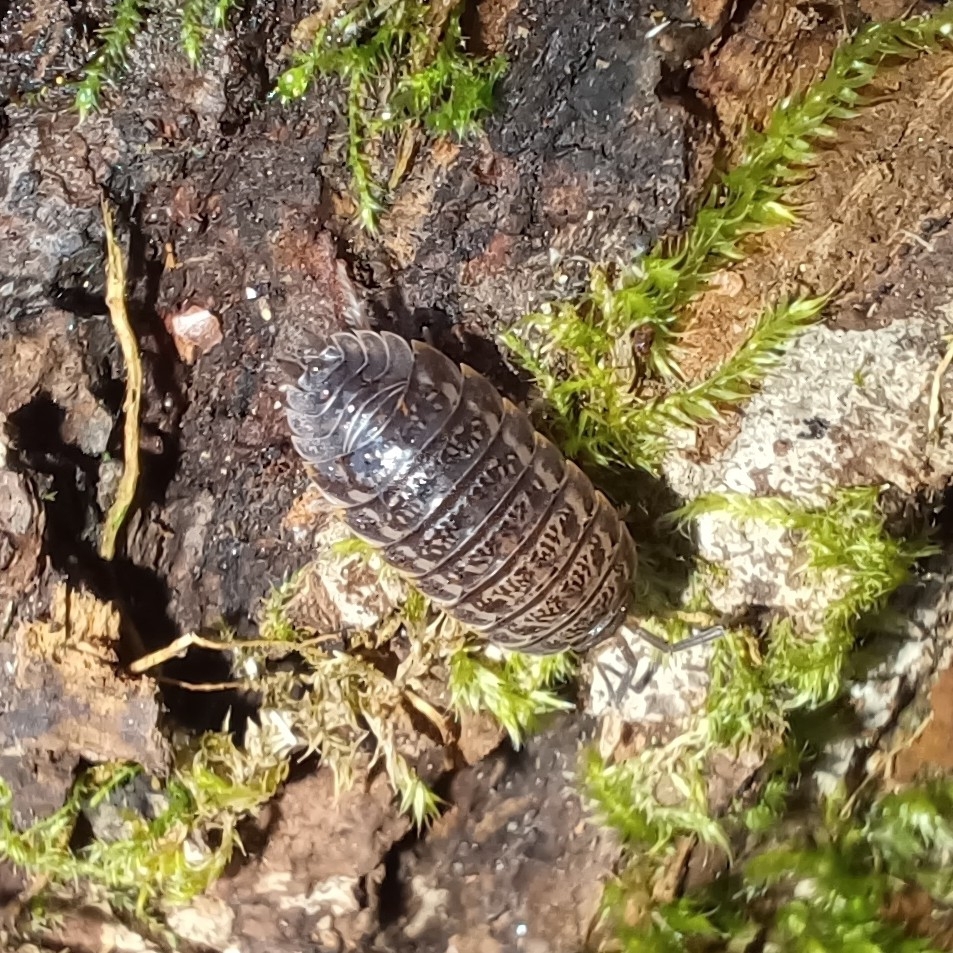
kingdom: Animalia
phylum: Arthropoda
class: Malacostraca
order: Isopoda
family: Trachelipodidae
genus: Trachelipus
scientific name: Trachelipus rathkii
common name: Isopod
